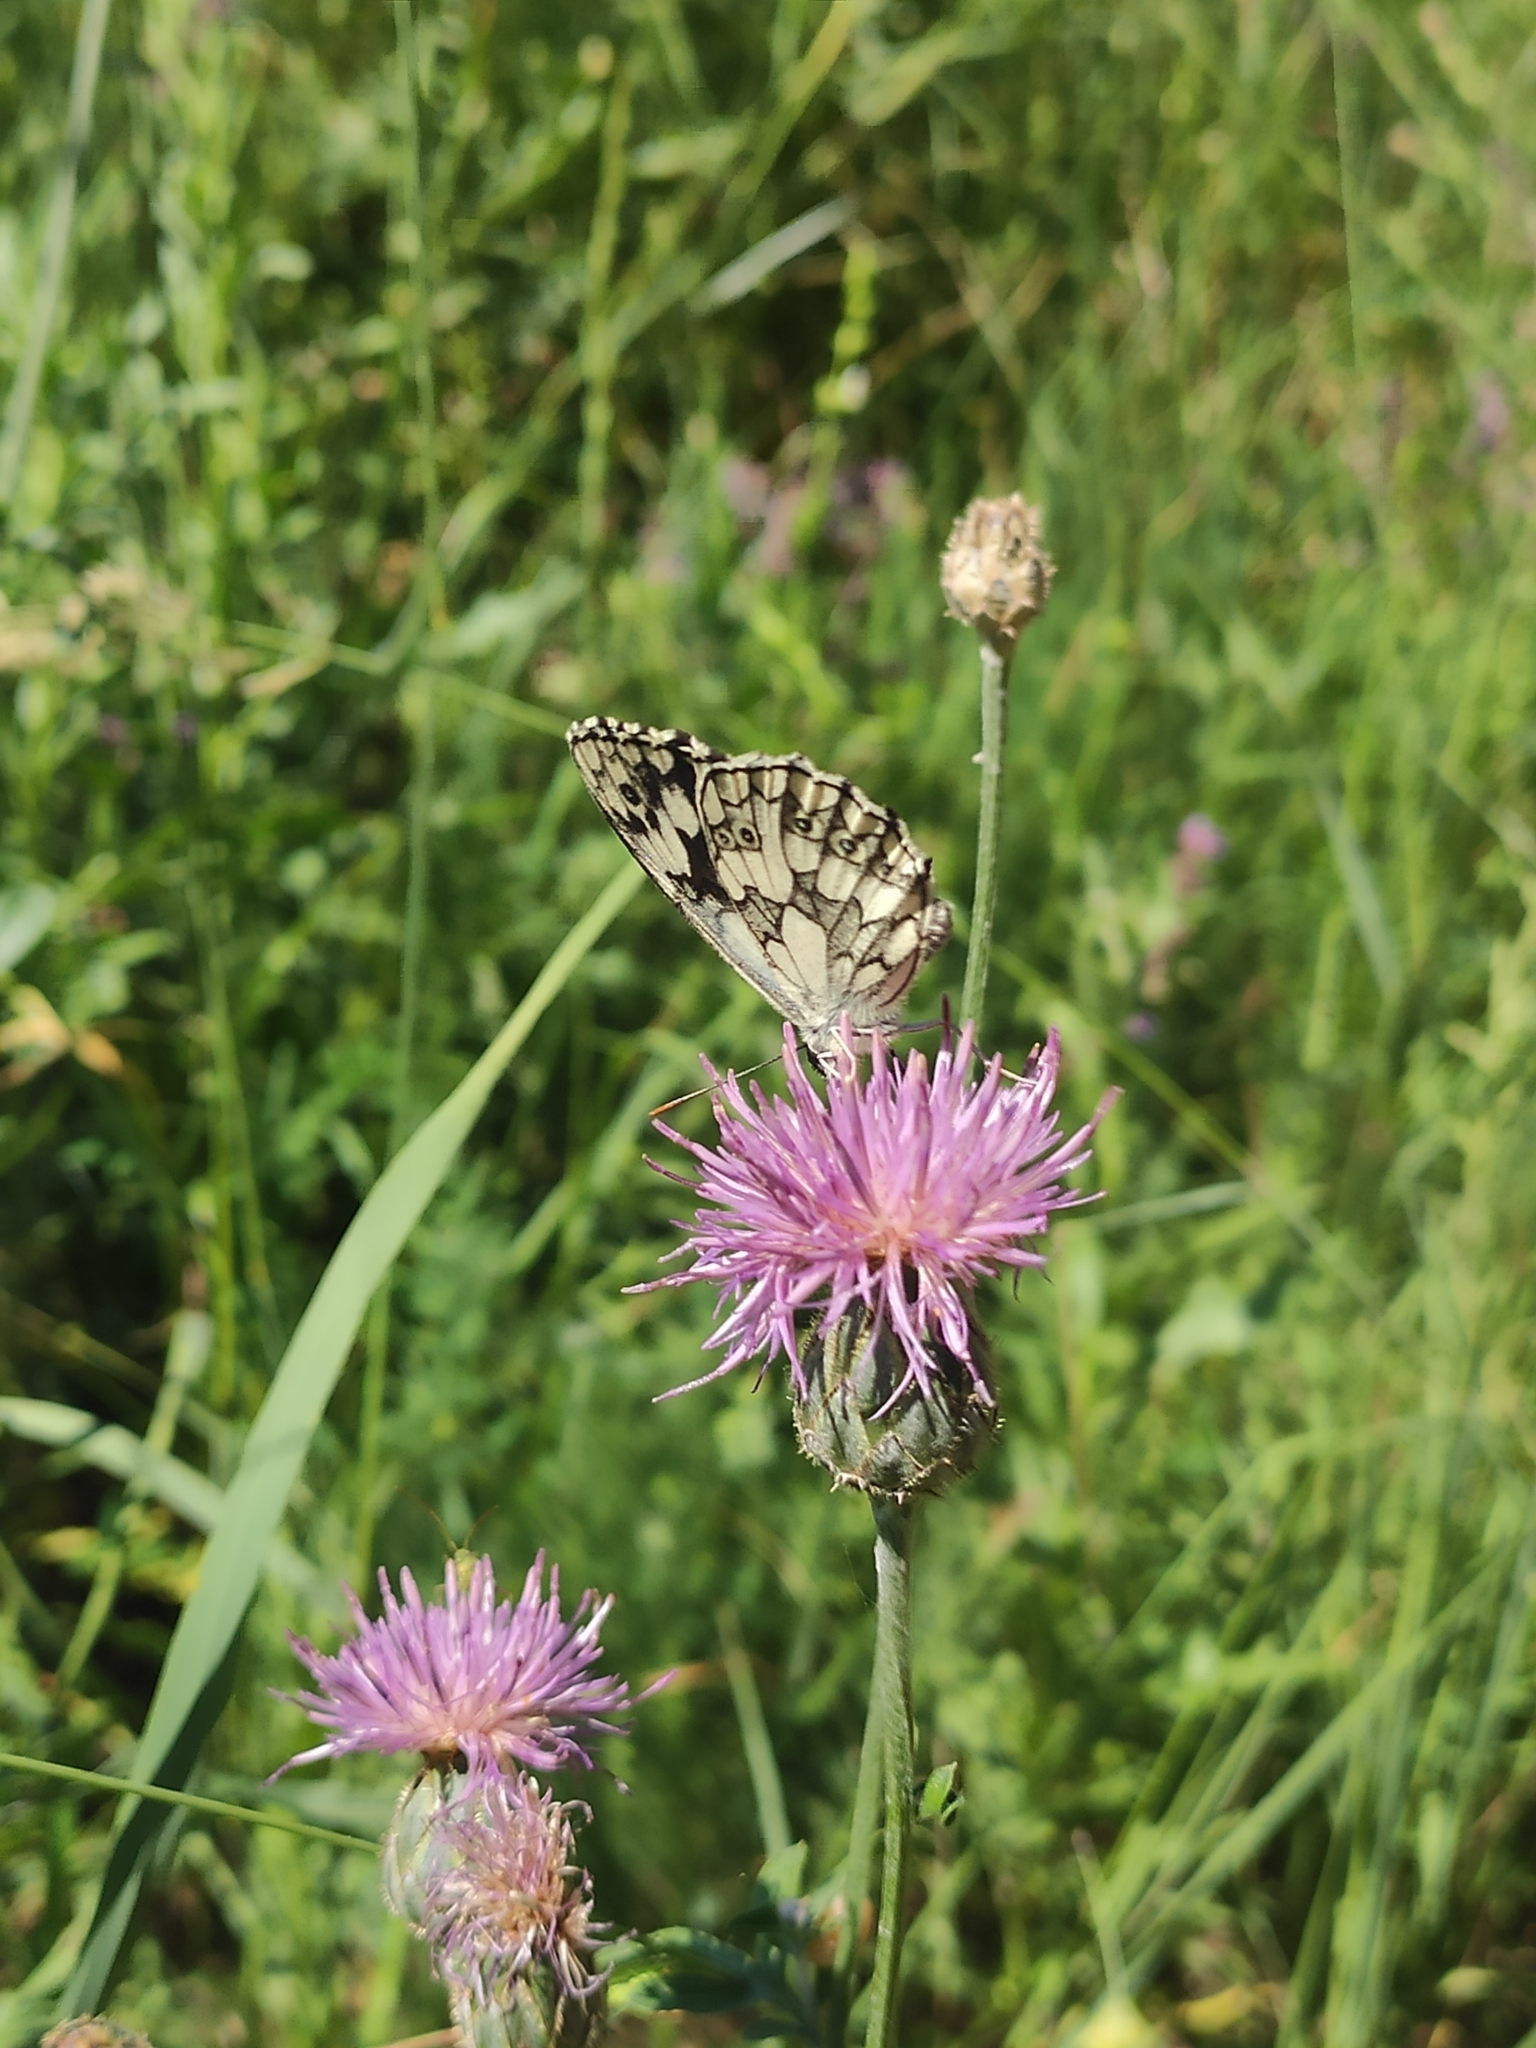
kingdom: Animalia
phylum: Arthropoda
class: Insecta
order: Lepidoptera
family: Nymphalidae
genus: Melanargia
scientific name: Melanargia galathea
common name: Marbled white
